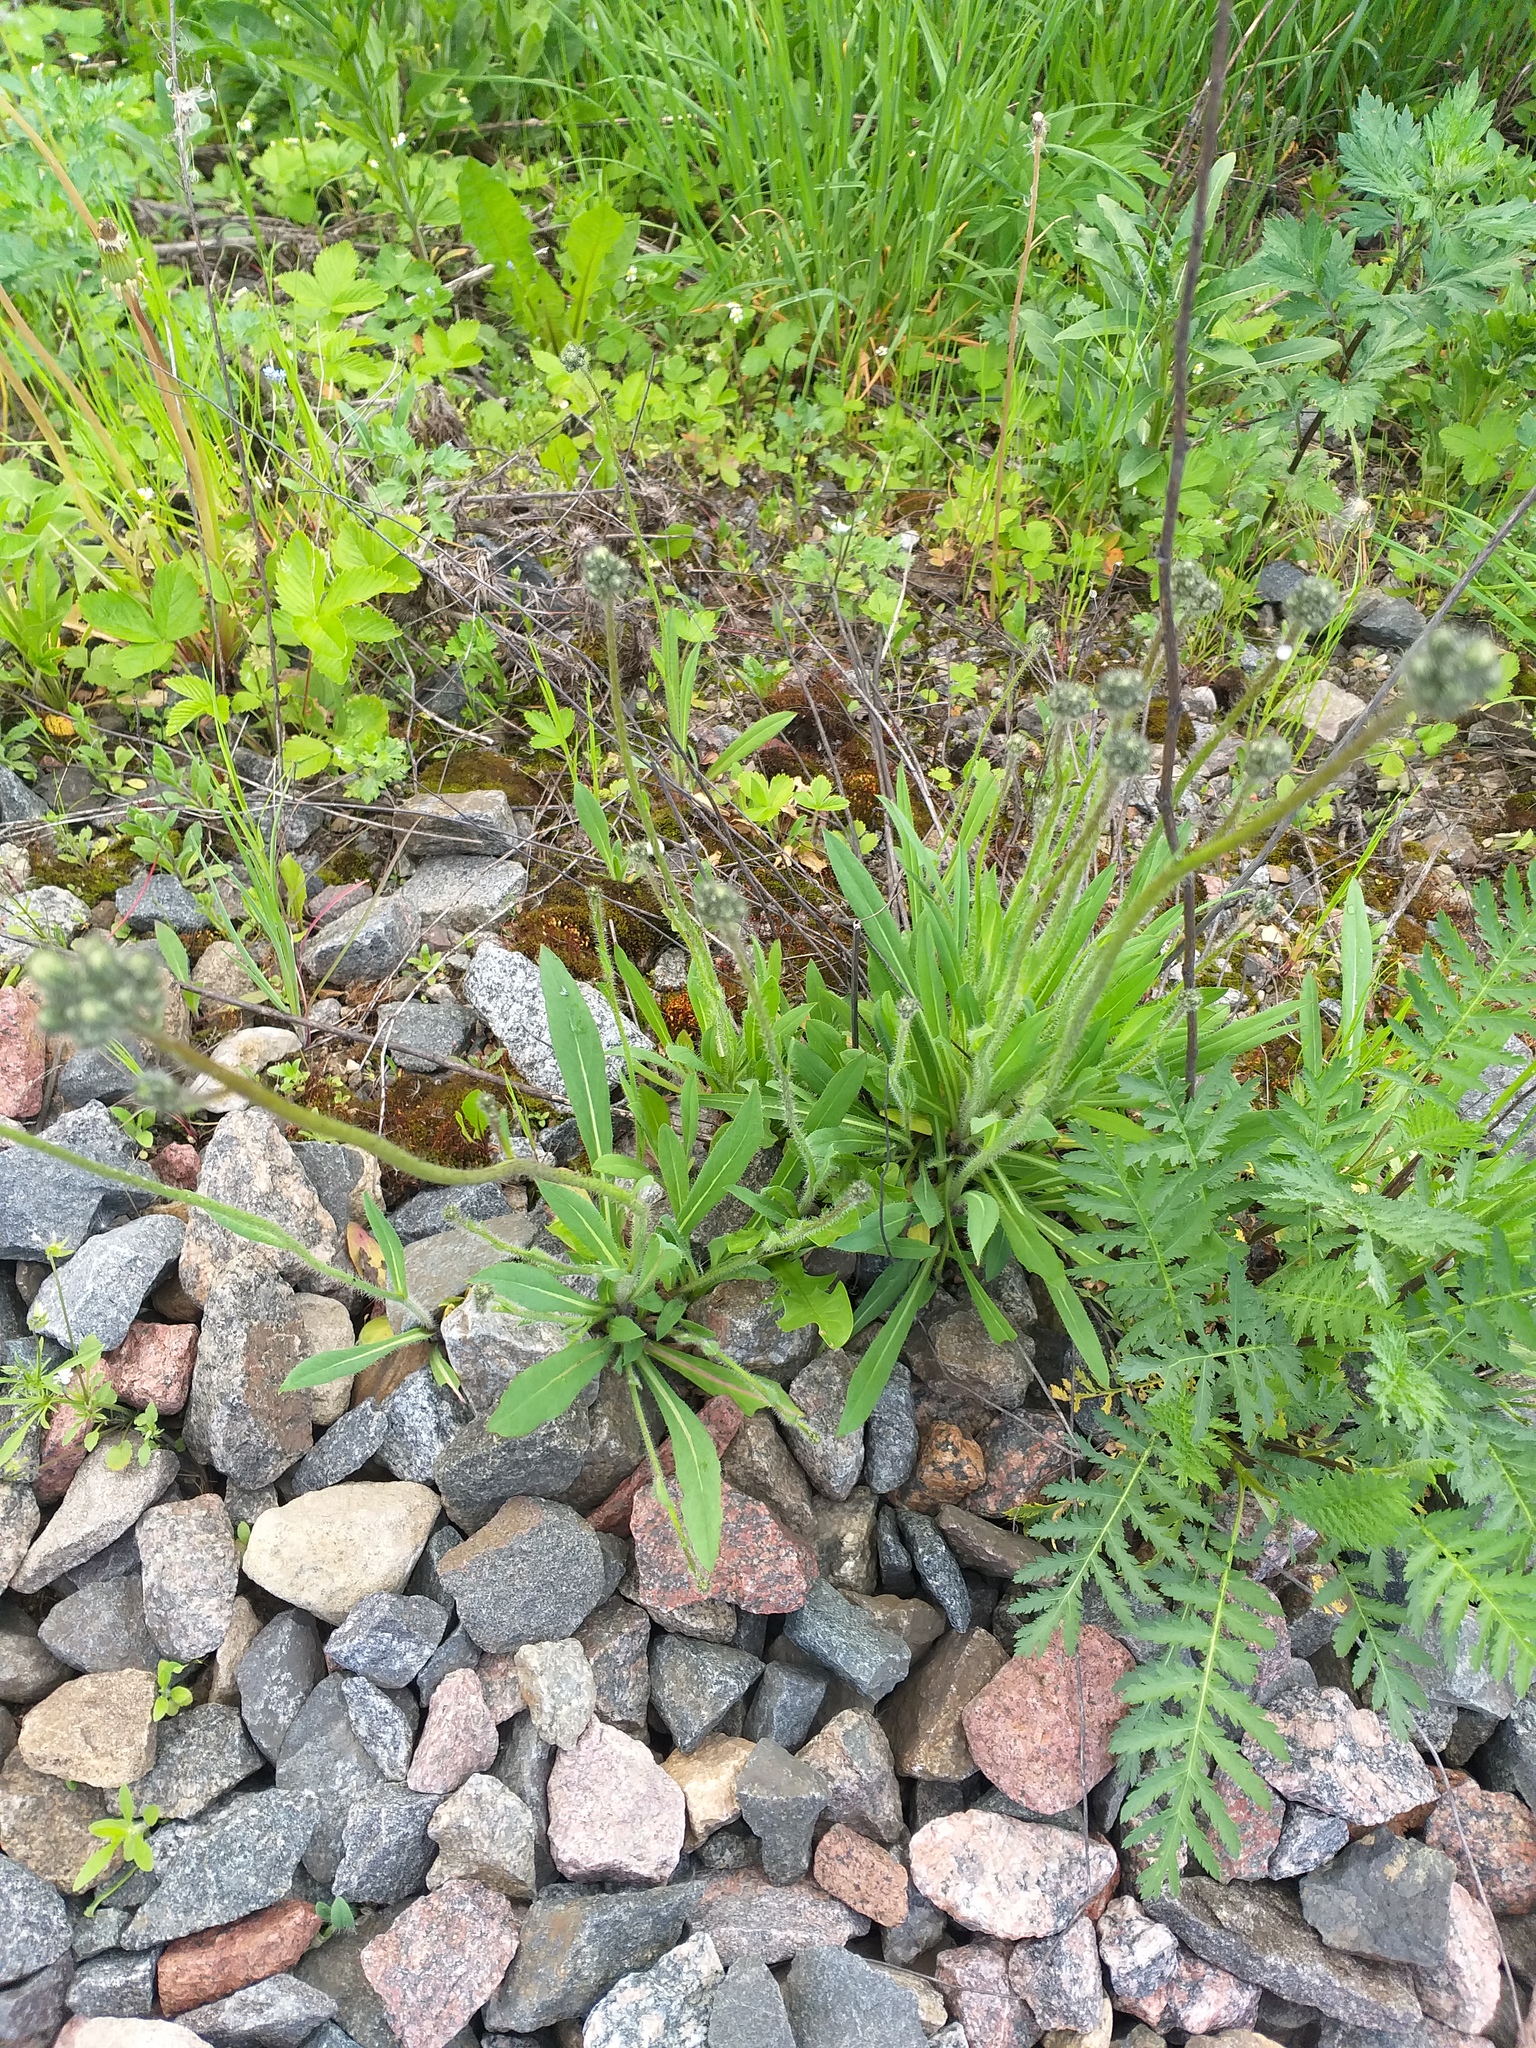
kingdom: Plantae
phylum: Tracheophyta
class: Magnoliopsida
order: Asterales
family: Asteraceae
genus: Pilosella
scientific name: Pilosella
